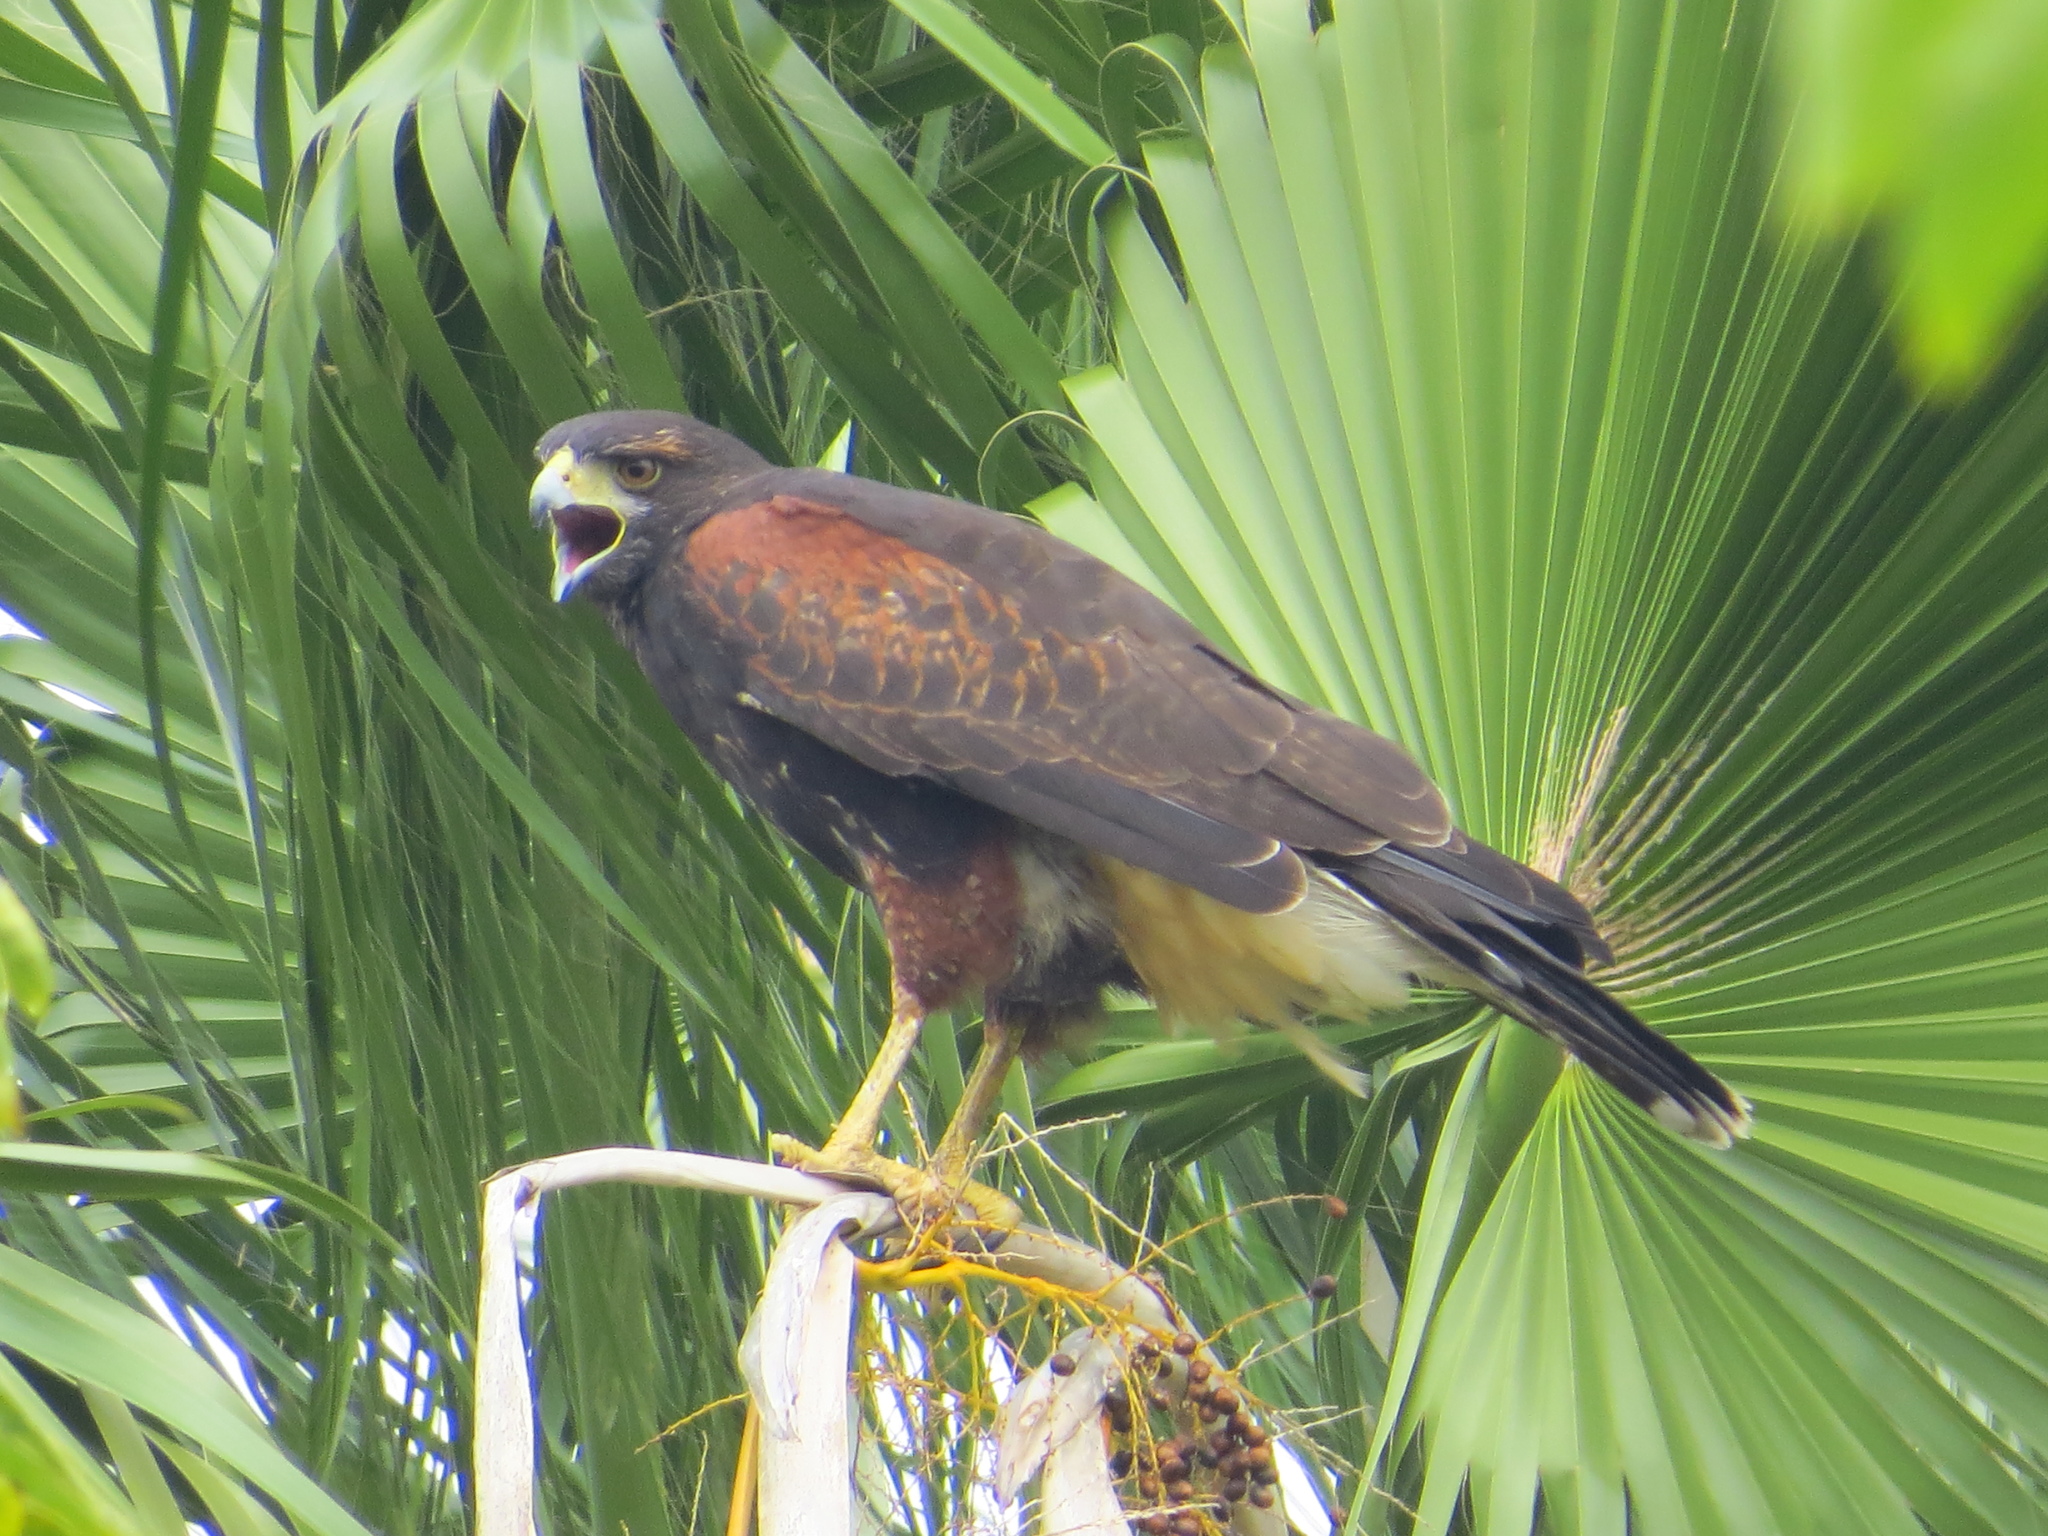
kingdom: Animalia
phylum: Chordata
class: Aves
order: Accipitriformes
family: Accipitridae
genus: Parabuteo
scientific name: Parabuteo unicinctus
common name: Harris's hawk
